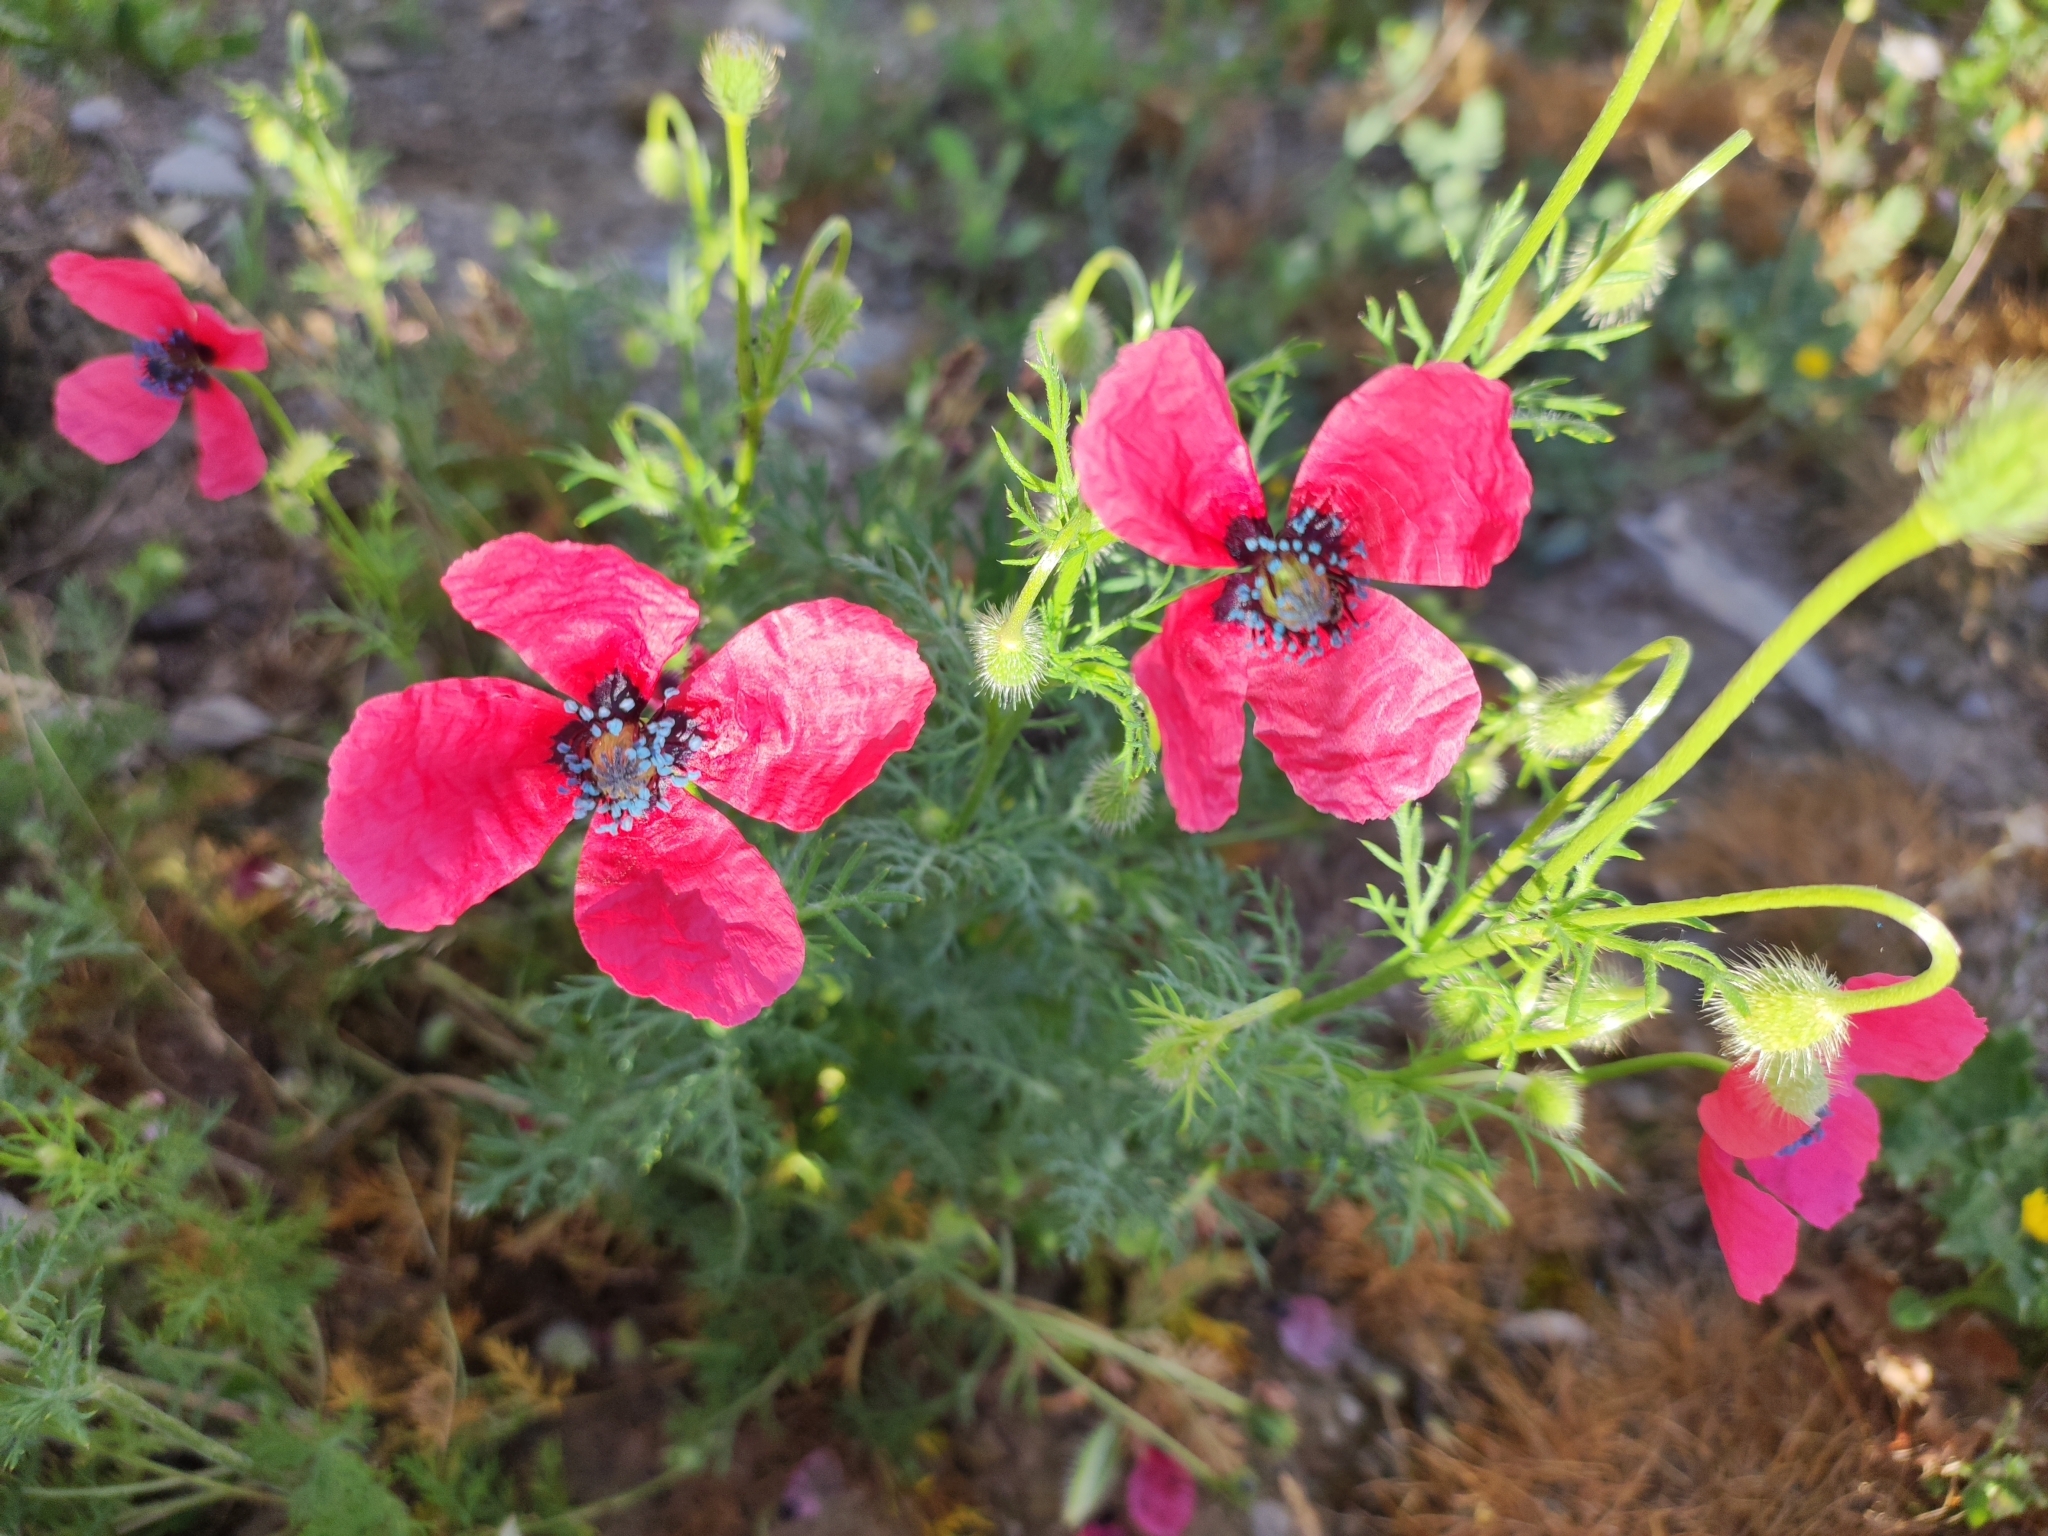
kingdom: Plantae
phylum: Tracheophyta
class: Magnoliopsida
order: Ranunculales
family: Papaveraceae
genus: Roemeria
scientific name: Roemeria hispida
